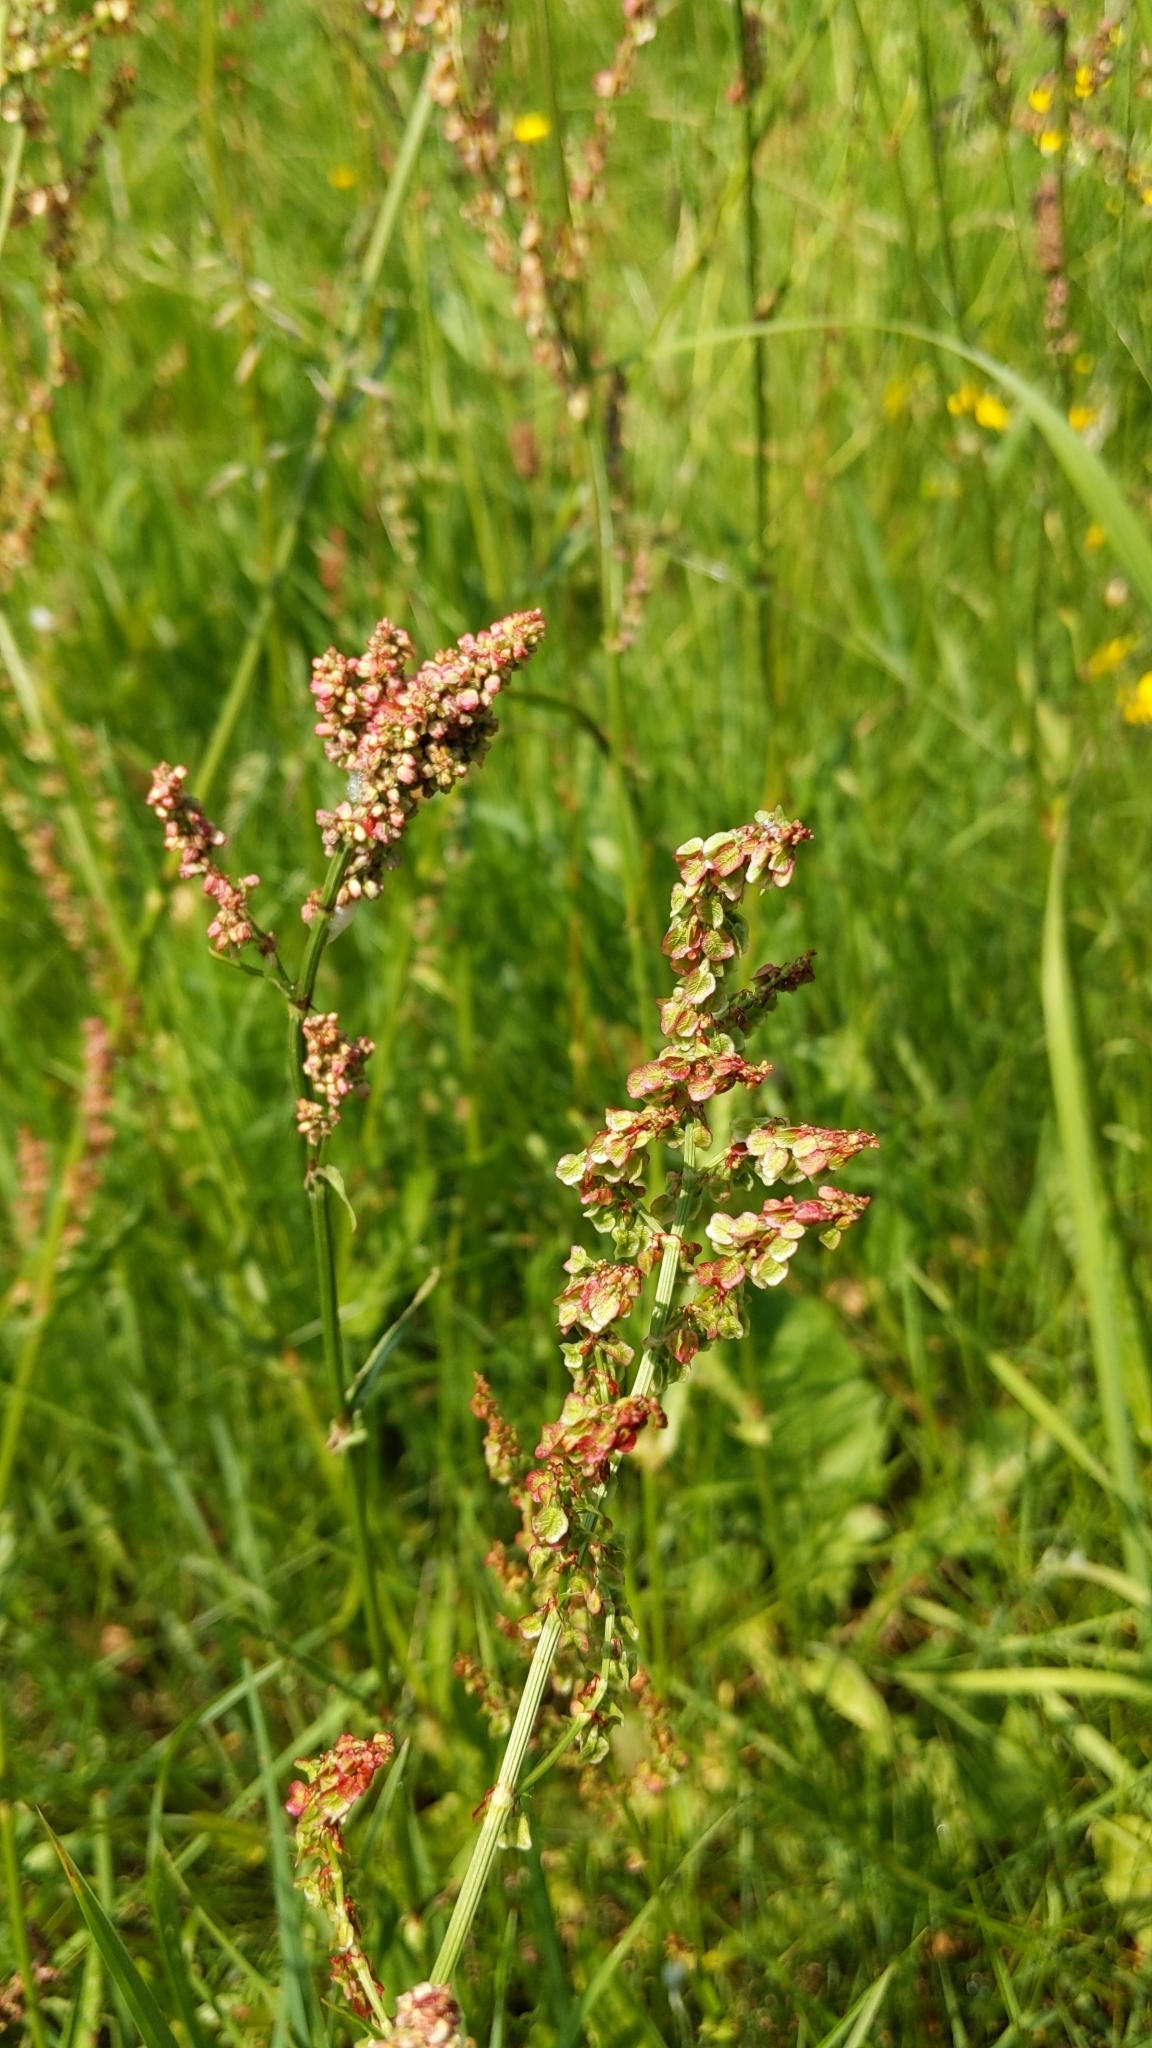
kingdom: Plantae
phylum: Tracheophyta
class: Magnoliopsida
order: Caryophyllales
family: Polygonaceae
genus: Rumex
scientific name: Rumex acetosa
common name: Garden sorrel
